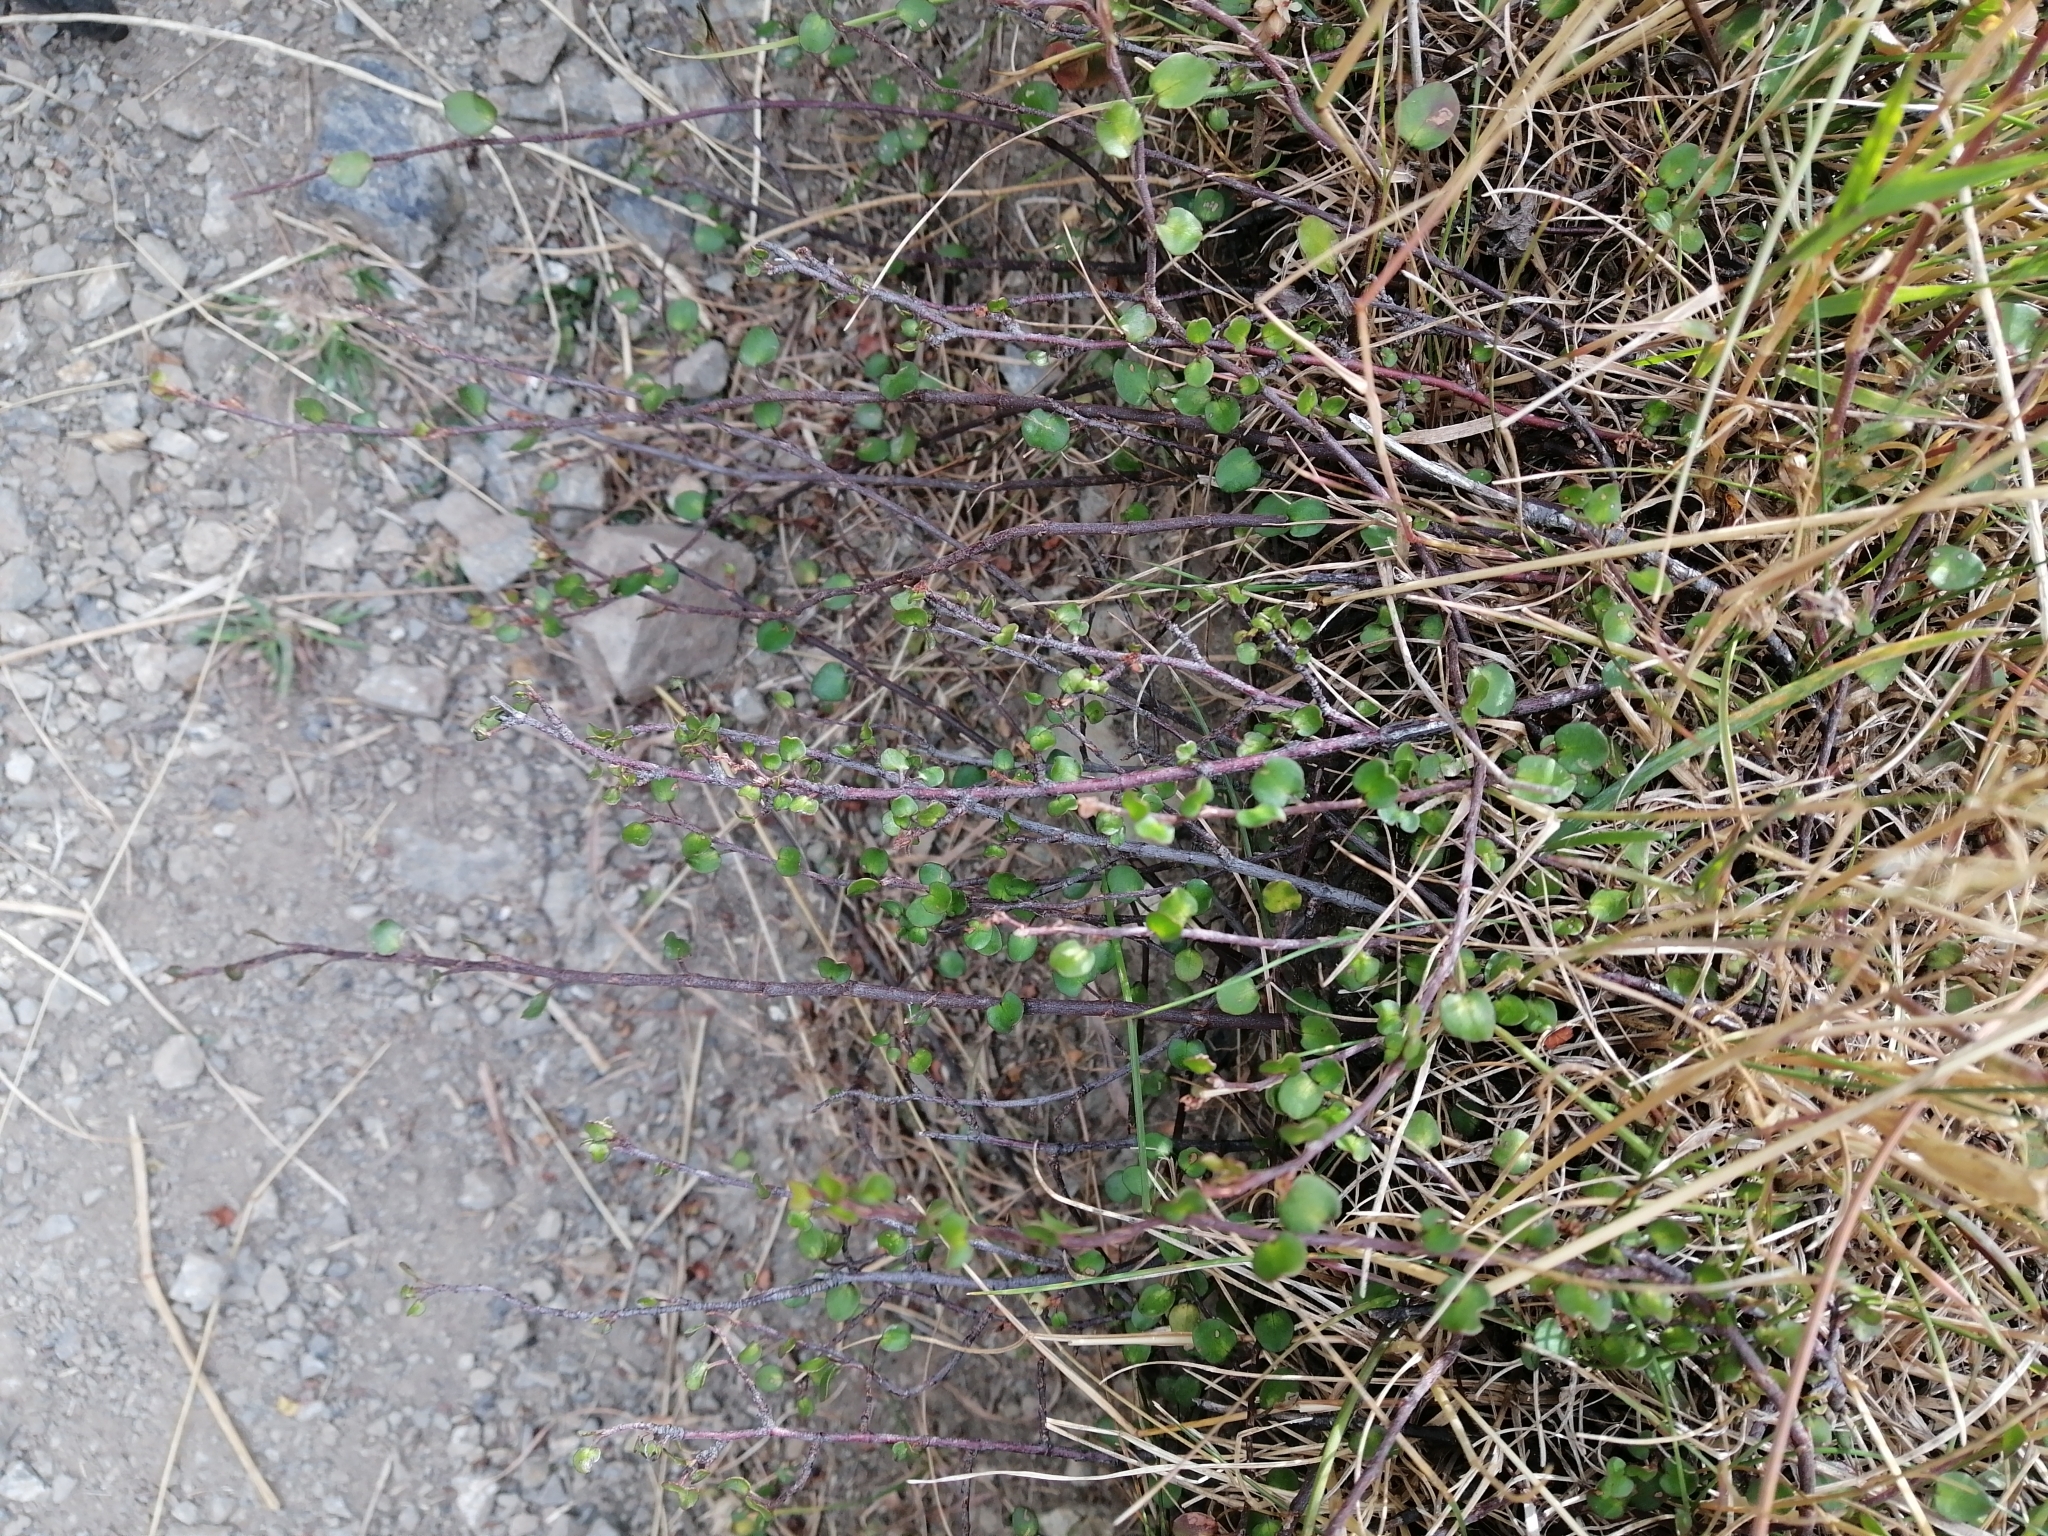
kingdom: Plantae
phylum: Tracheophyta
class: Magnoliopsida
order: Caryophyllales
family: Polygonaceae
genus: Muehlenbeckia
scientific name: Muehlenbeckia complexa
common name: Wireplant
